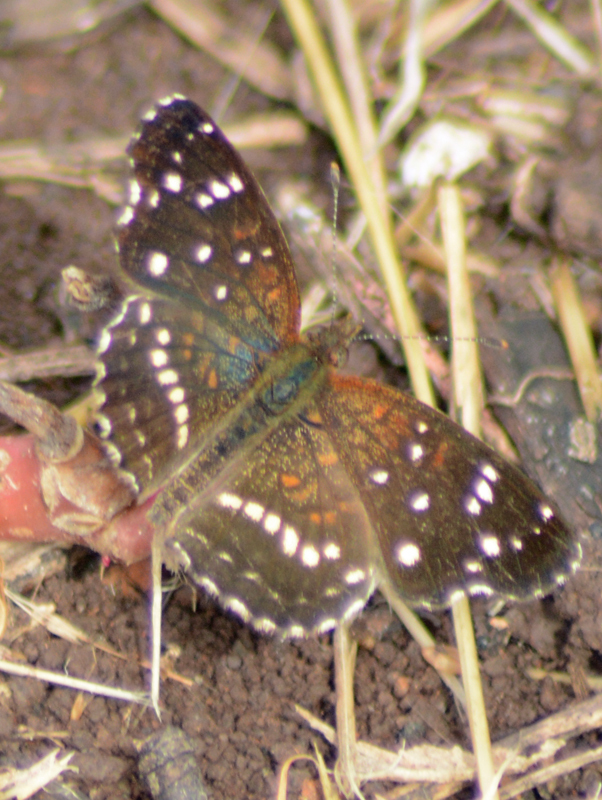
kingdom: Animalia
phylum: Arthropoda
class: Insecta
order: Lepidoptera
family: Nymphalidae
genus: Anthanassa
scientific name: Anthanassa texana
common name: Texan crescent
